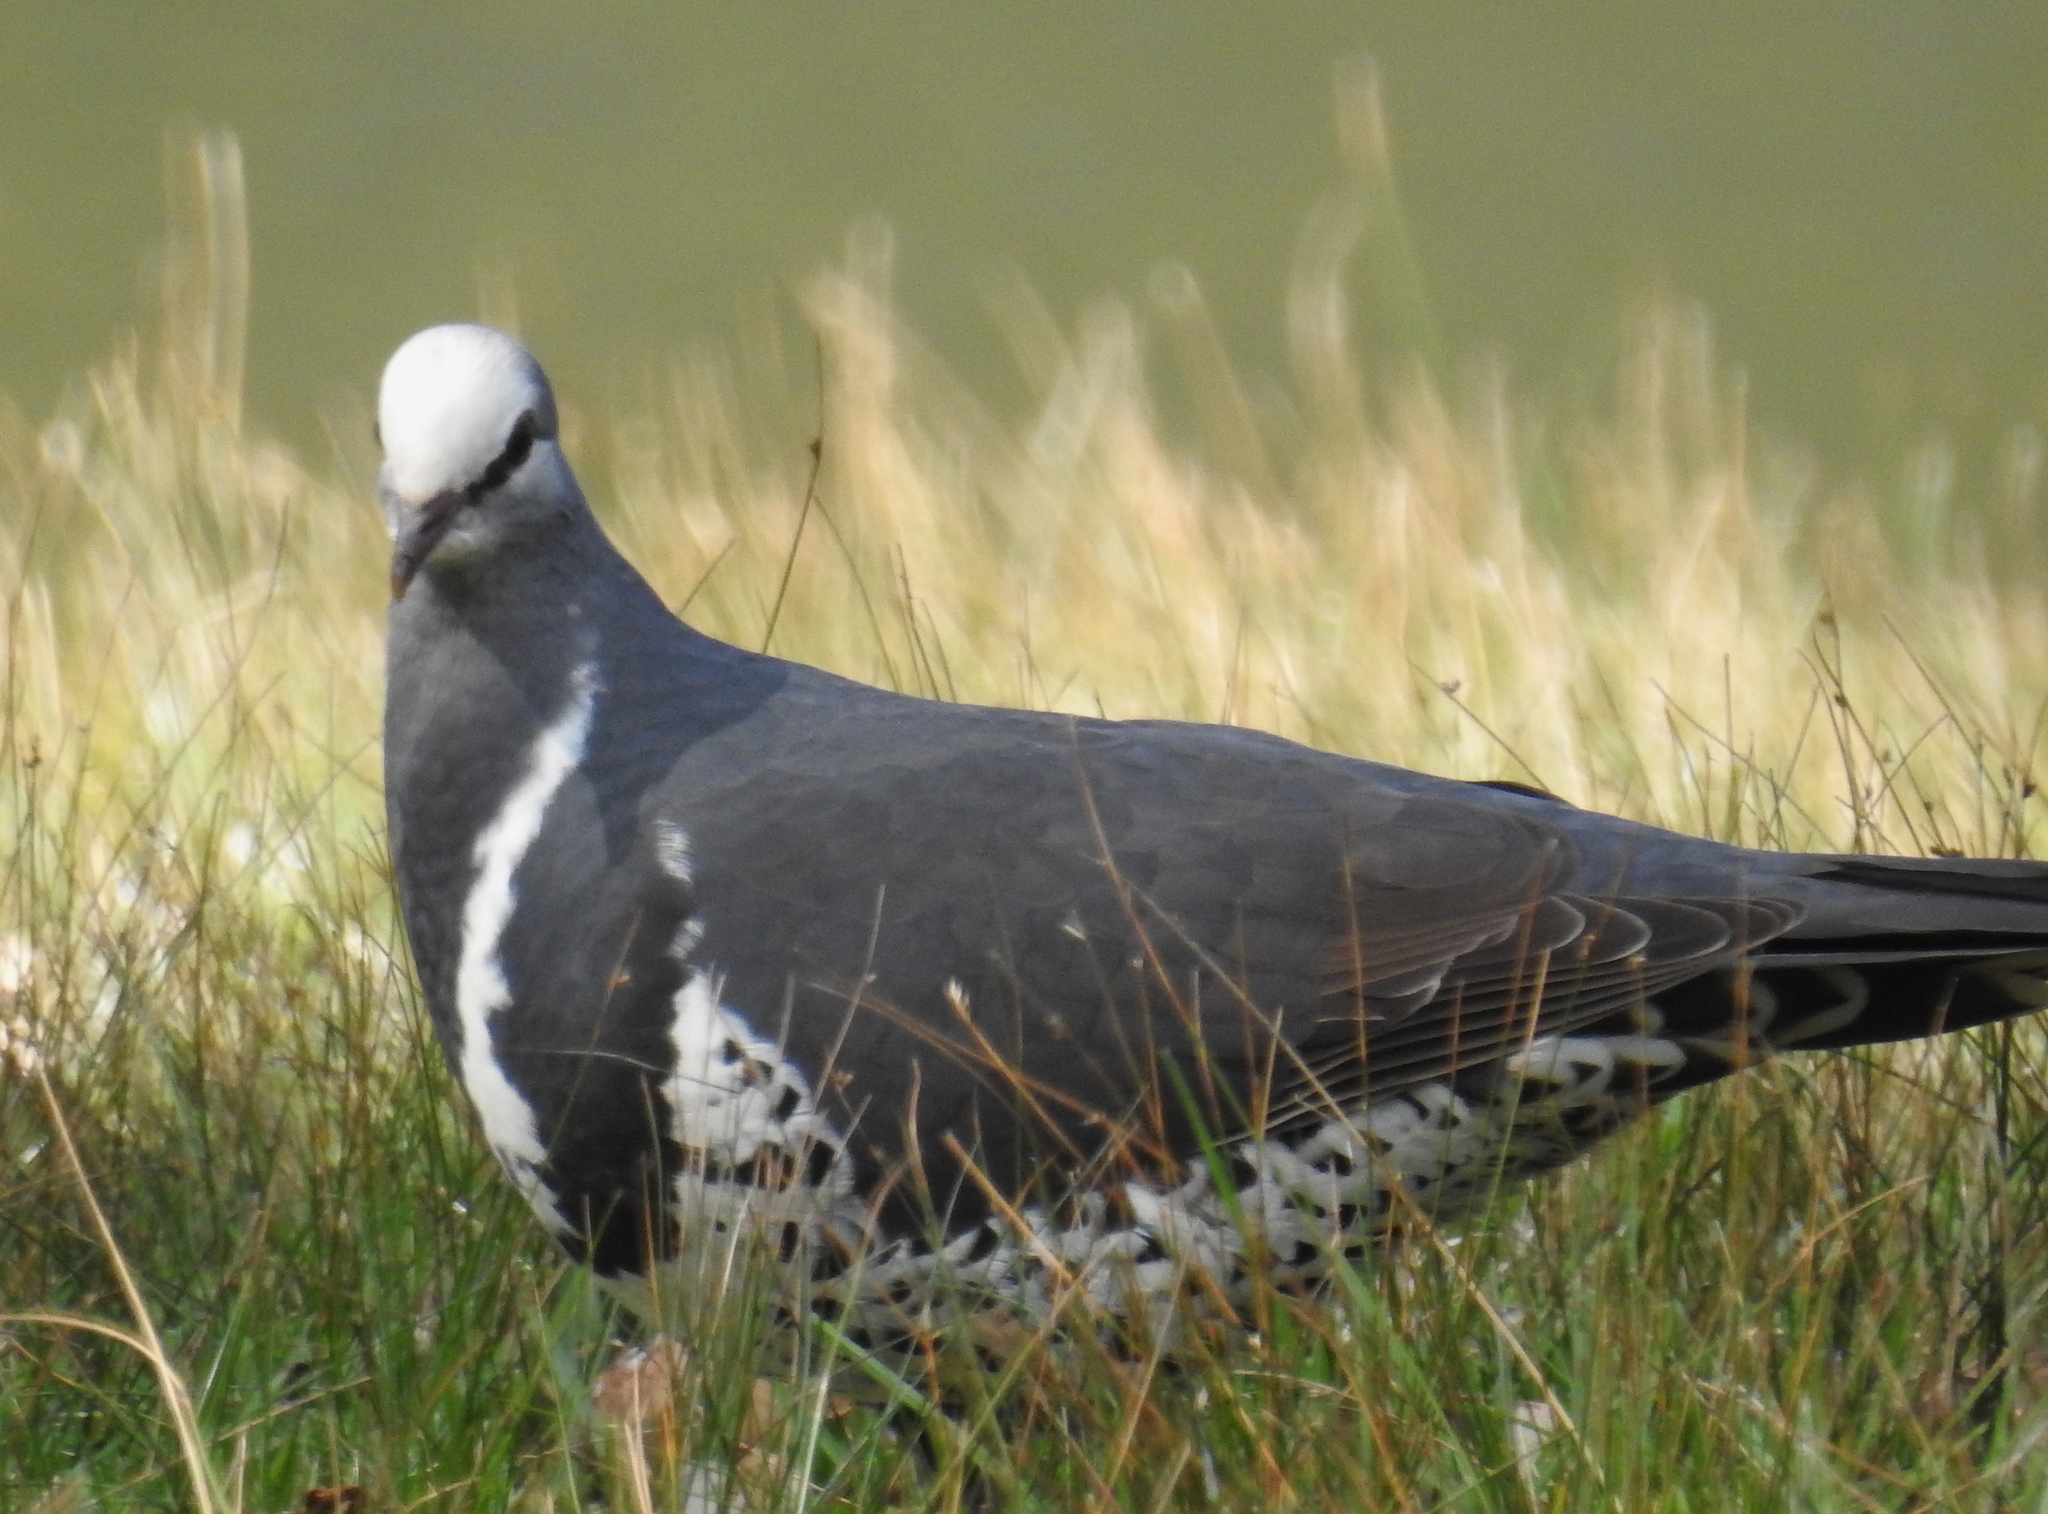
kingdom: Animalia
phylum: Chordata
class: Aves
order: Columbiformes
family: Columbidae
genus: Leucosarcia
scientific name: Leucosarcia melanoleuca
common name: Wonga pigeon
